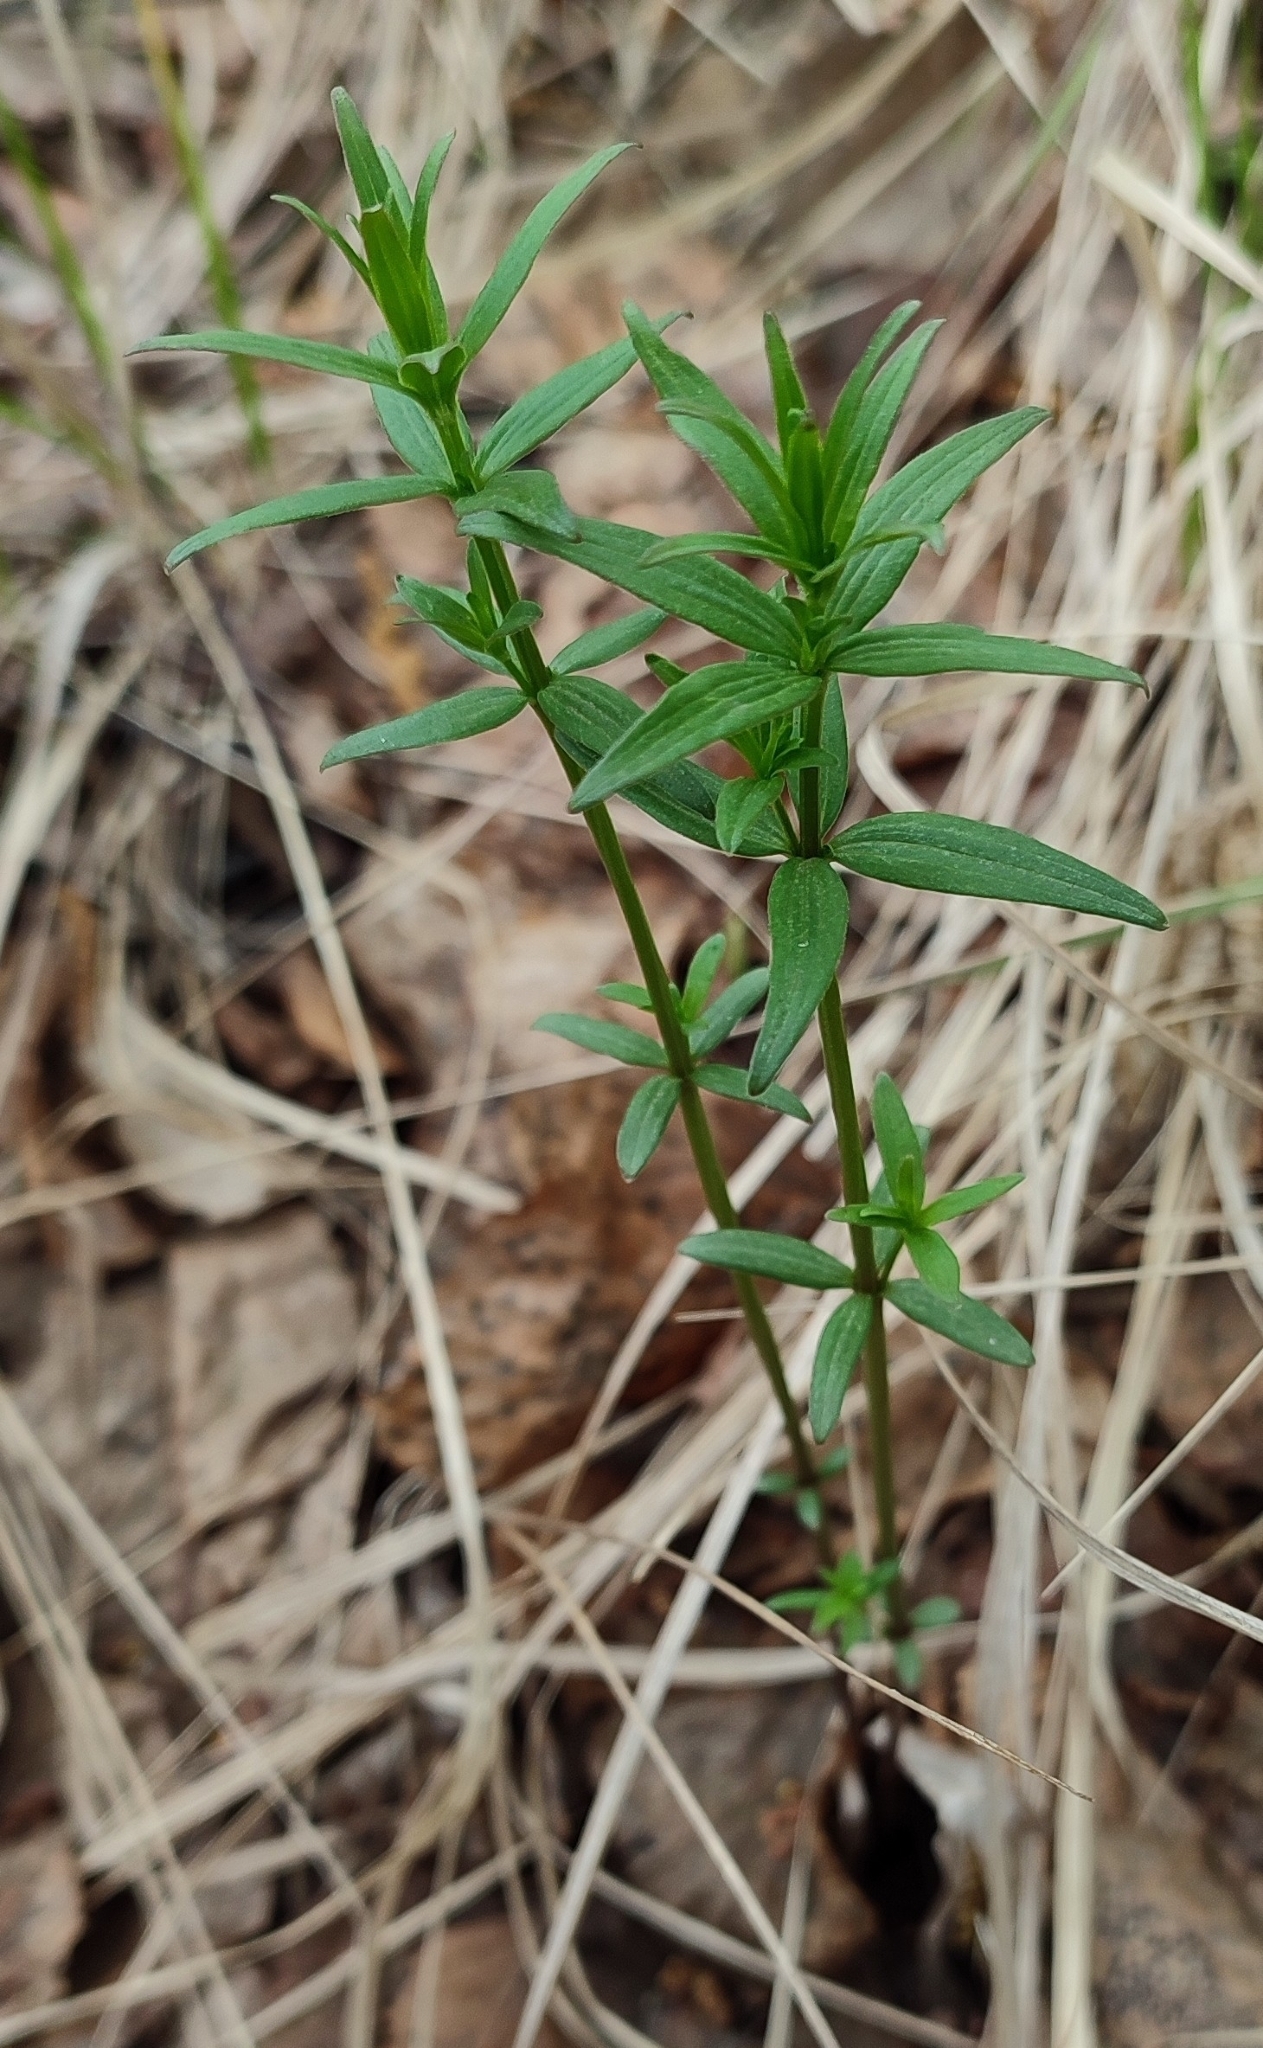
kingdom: Plantae
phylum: Tracheophyta
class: Magnoliopsida
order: Gentianales
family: Rubiaceae
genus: Galium
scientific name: Galium boreale
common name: Northern bedstraw
